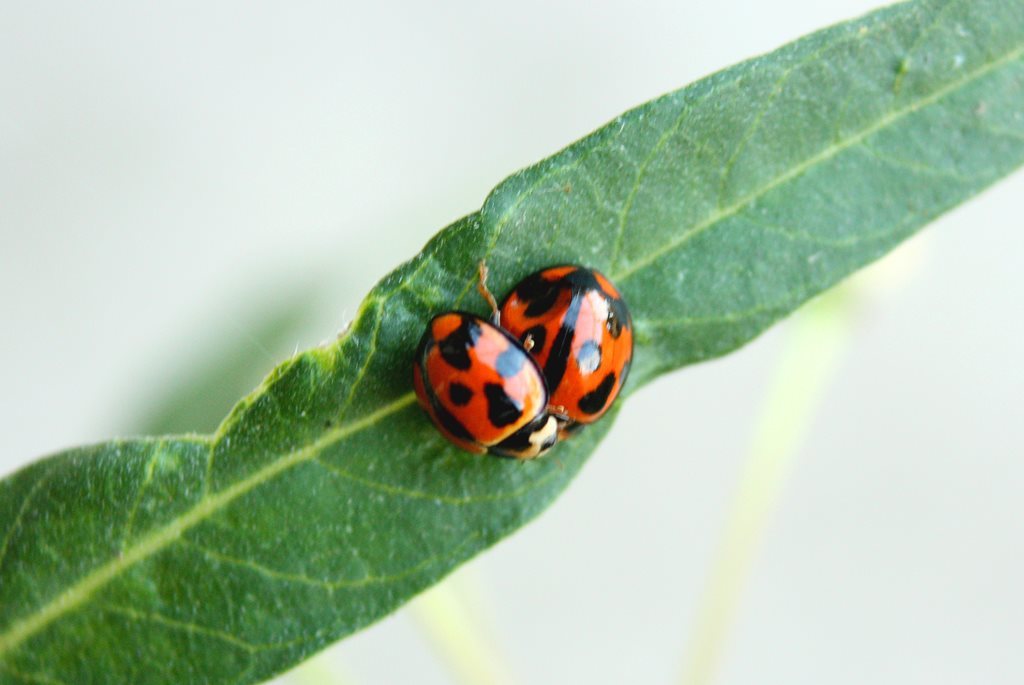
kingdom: Animalia
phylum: Arthropoda
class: Insecta
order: Coleoptera
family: Coccinellidae
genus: Coelophora
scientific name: Coelophora inaequalis
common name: Common australian lady beetle
